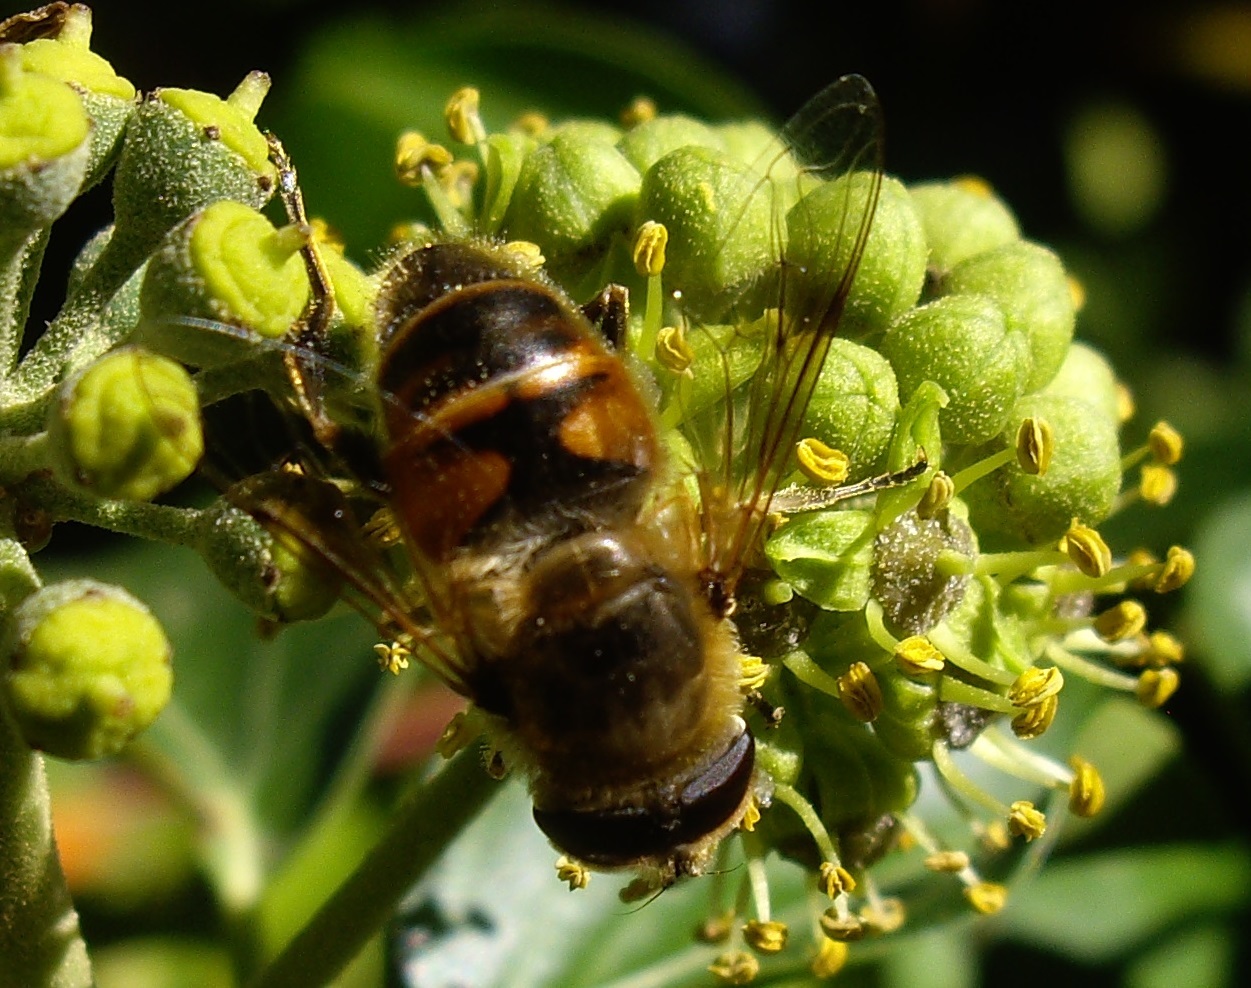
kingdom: Animalia
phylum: Arthropoda
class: Insecta
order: Diptera
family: Syrphidae
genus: Eristalis
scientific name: Eristalis tenax
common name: Drone fly
